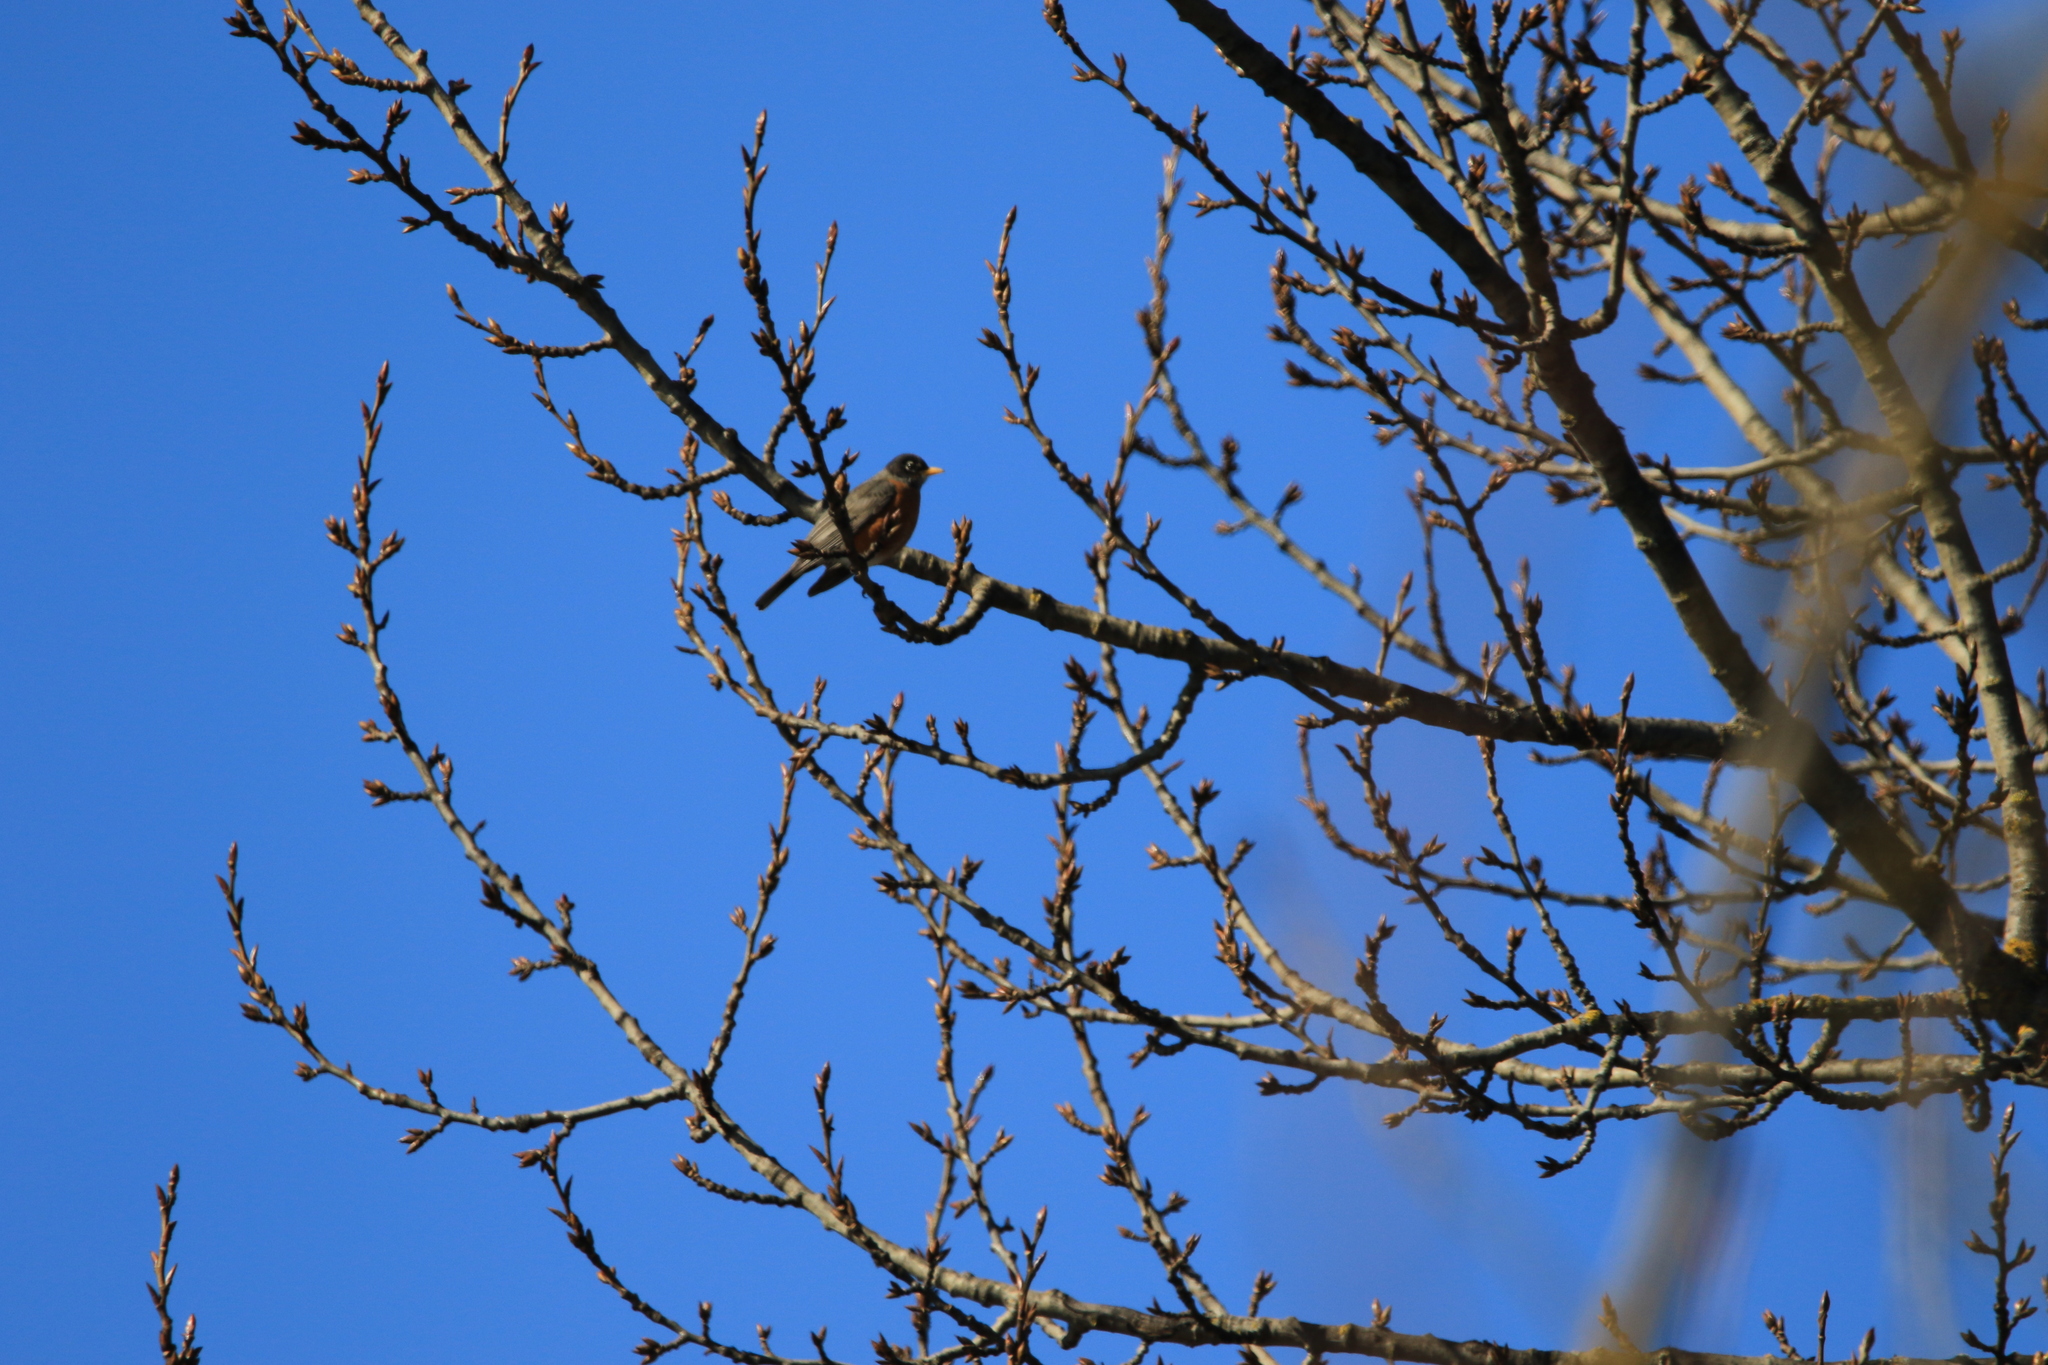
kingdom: Animalia
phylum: Chordata
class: Aves
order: Passeriformes
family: Turdidae
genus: Turdus
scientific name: Turdus migratorius
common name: American robin
